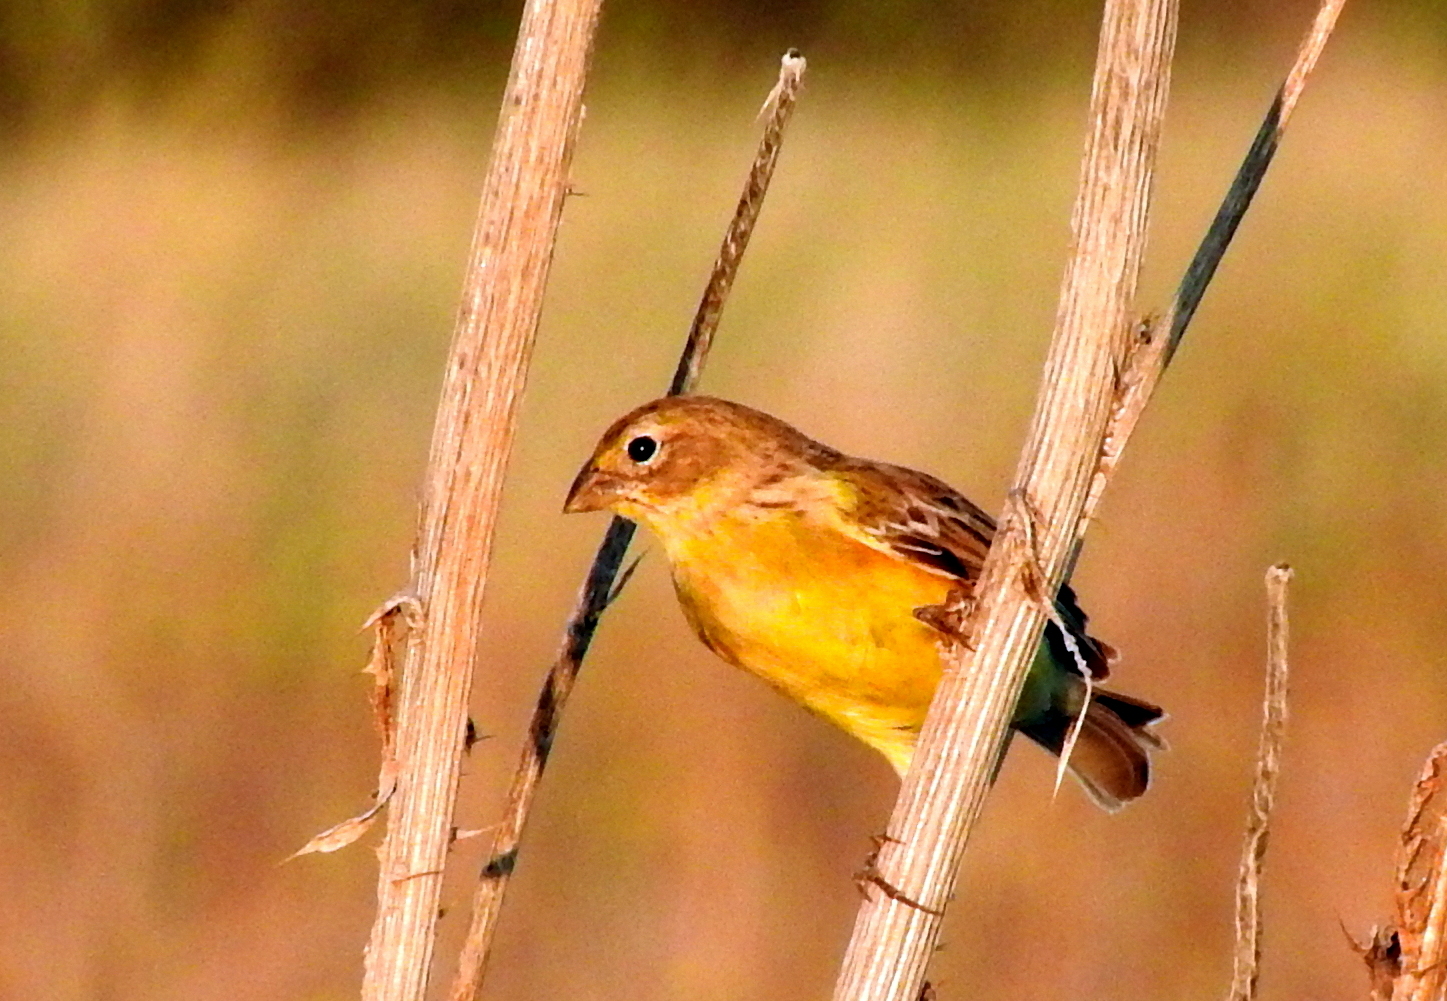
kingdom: Animalia
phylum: Chordata
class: Aves
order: Passeriformes
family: Thraupidae
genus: Sicalis
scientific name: Sicalis luteola
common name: Grassland yellow-finch
